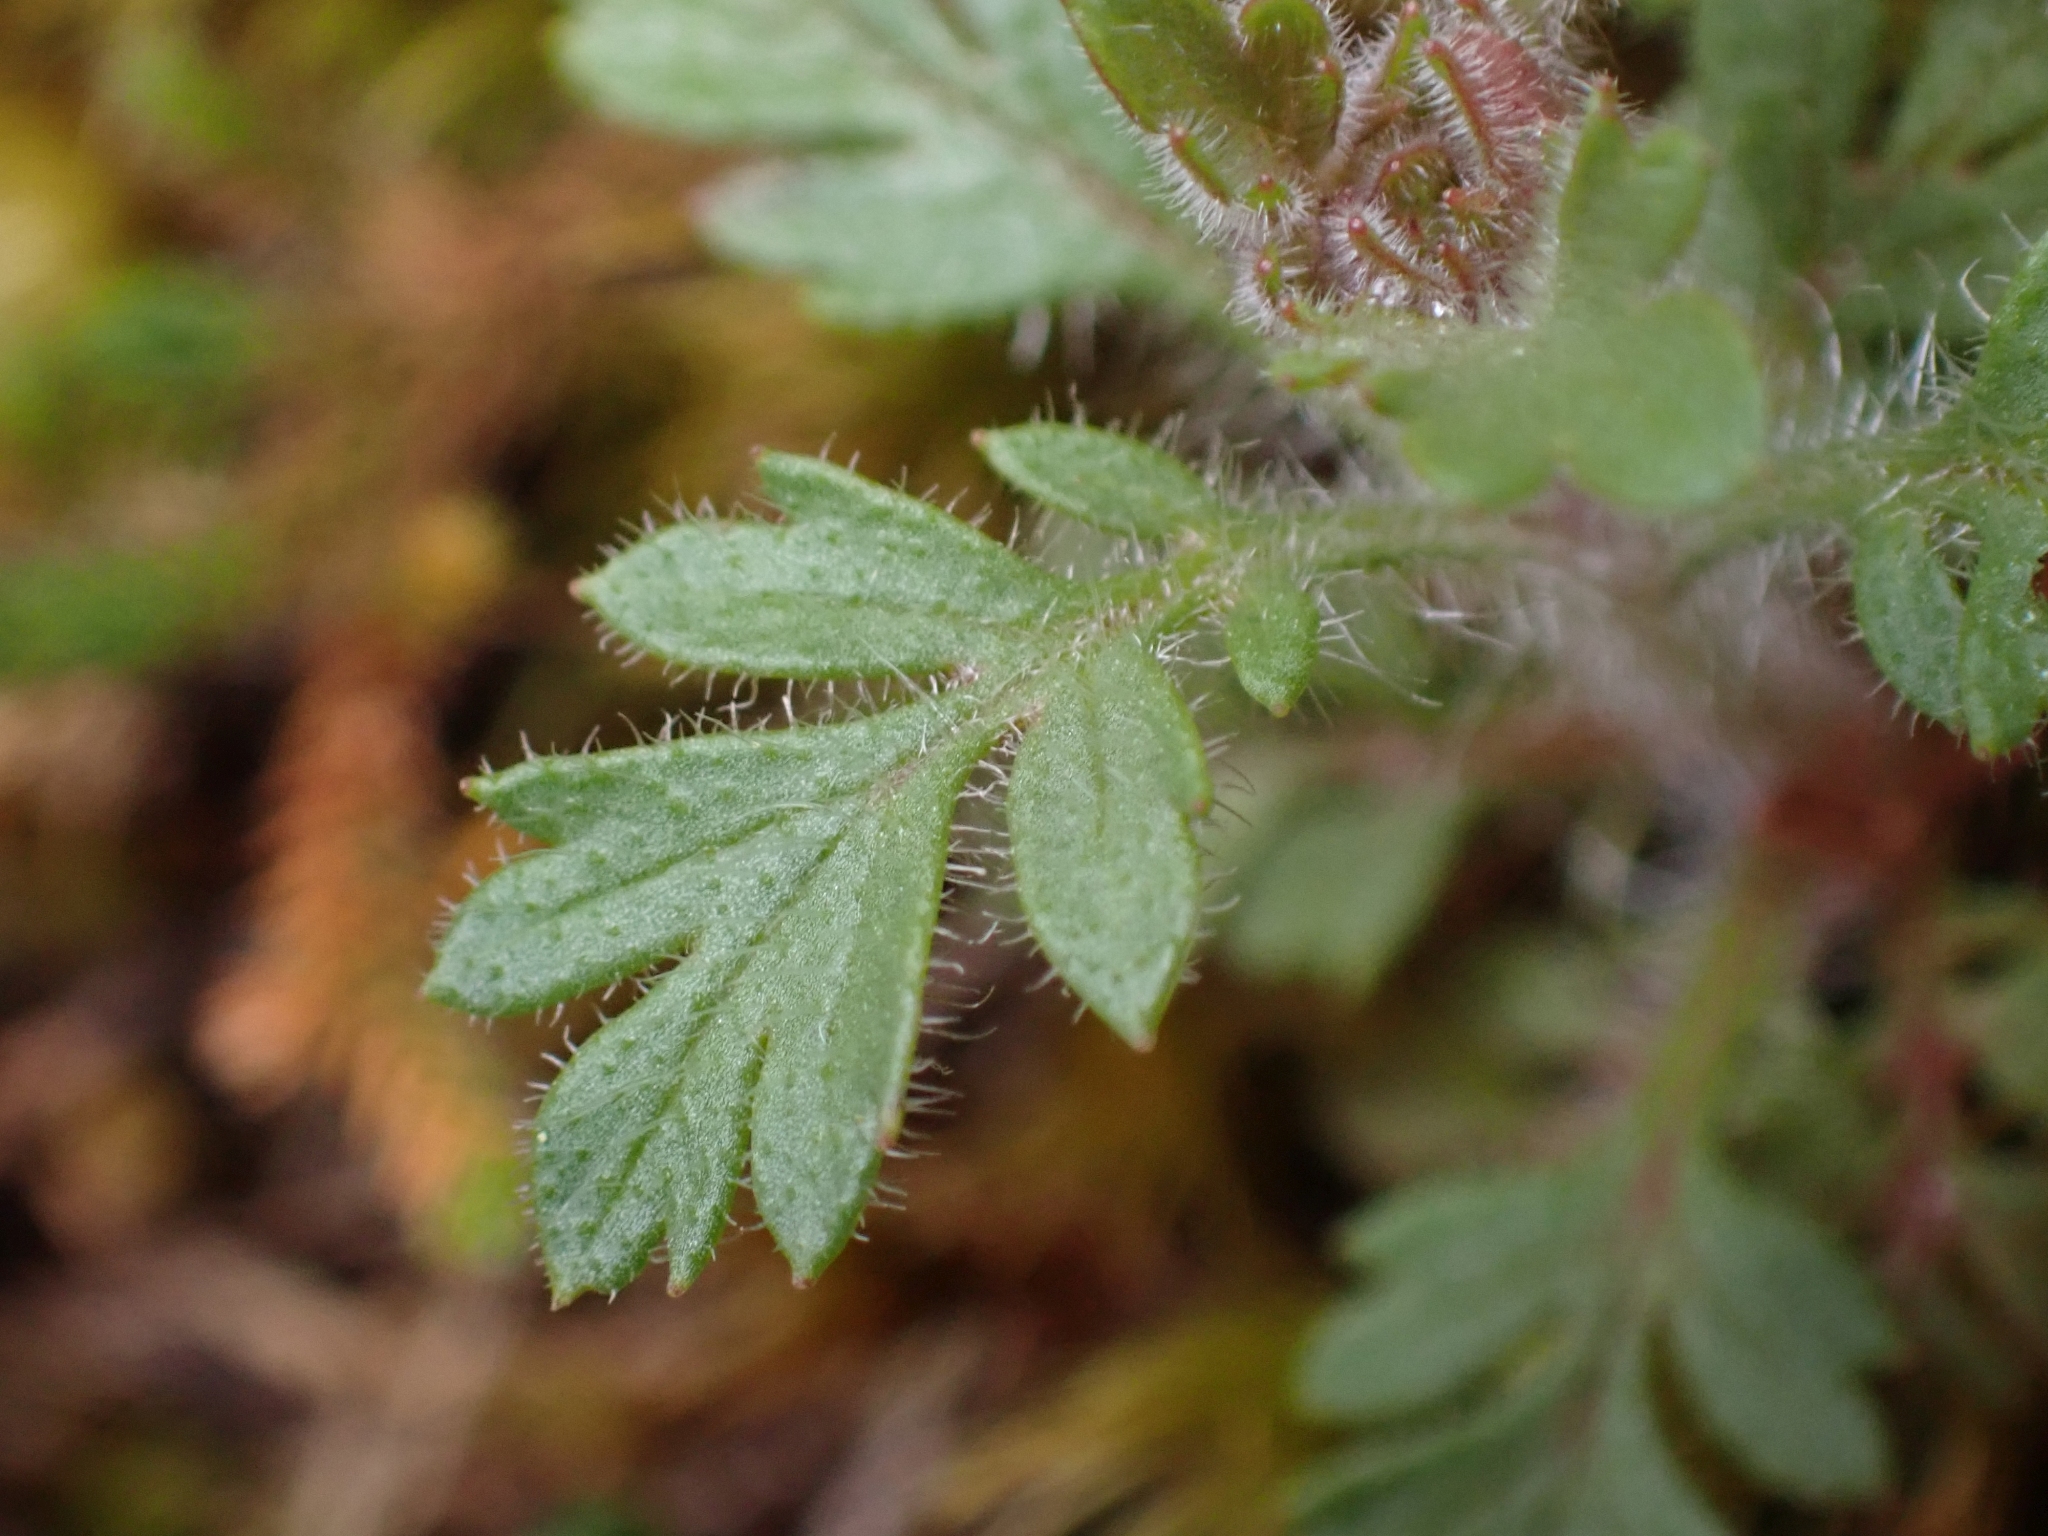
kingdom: Plantae
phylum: Tracheophyta
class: Magnoliopsida
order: Ericales
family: Polemoniaceae
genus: Collomia
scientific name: Collomia heterophylla
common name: Variable-leaved collomia
